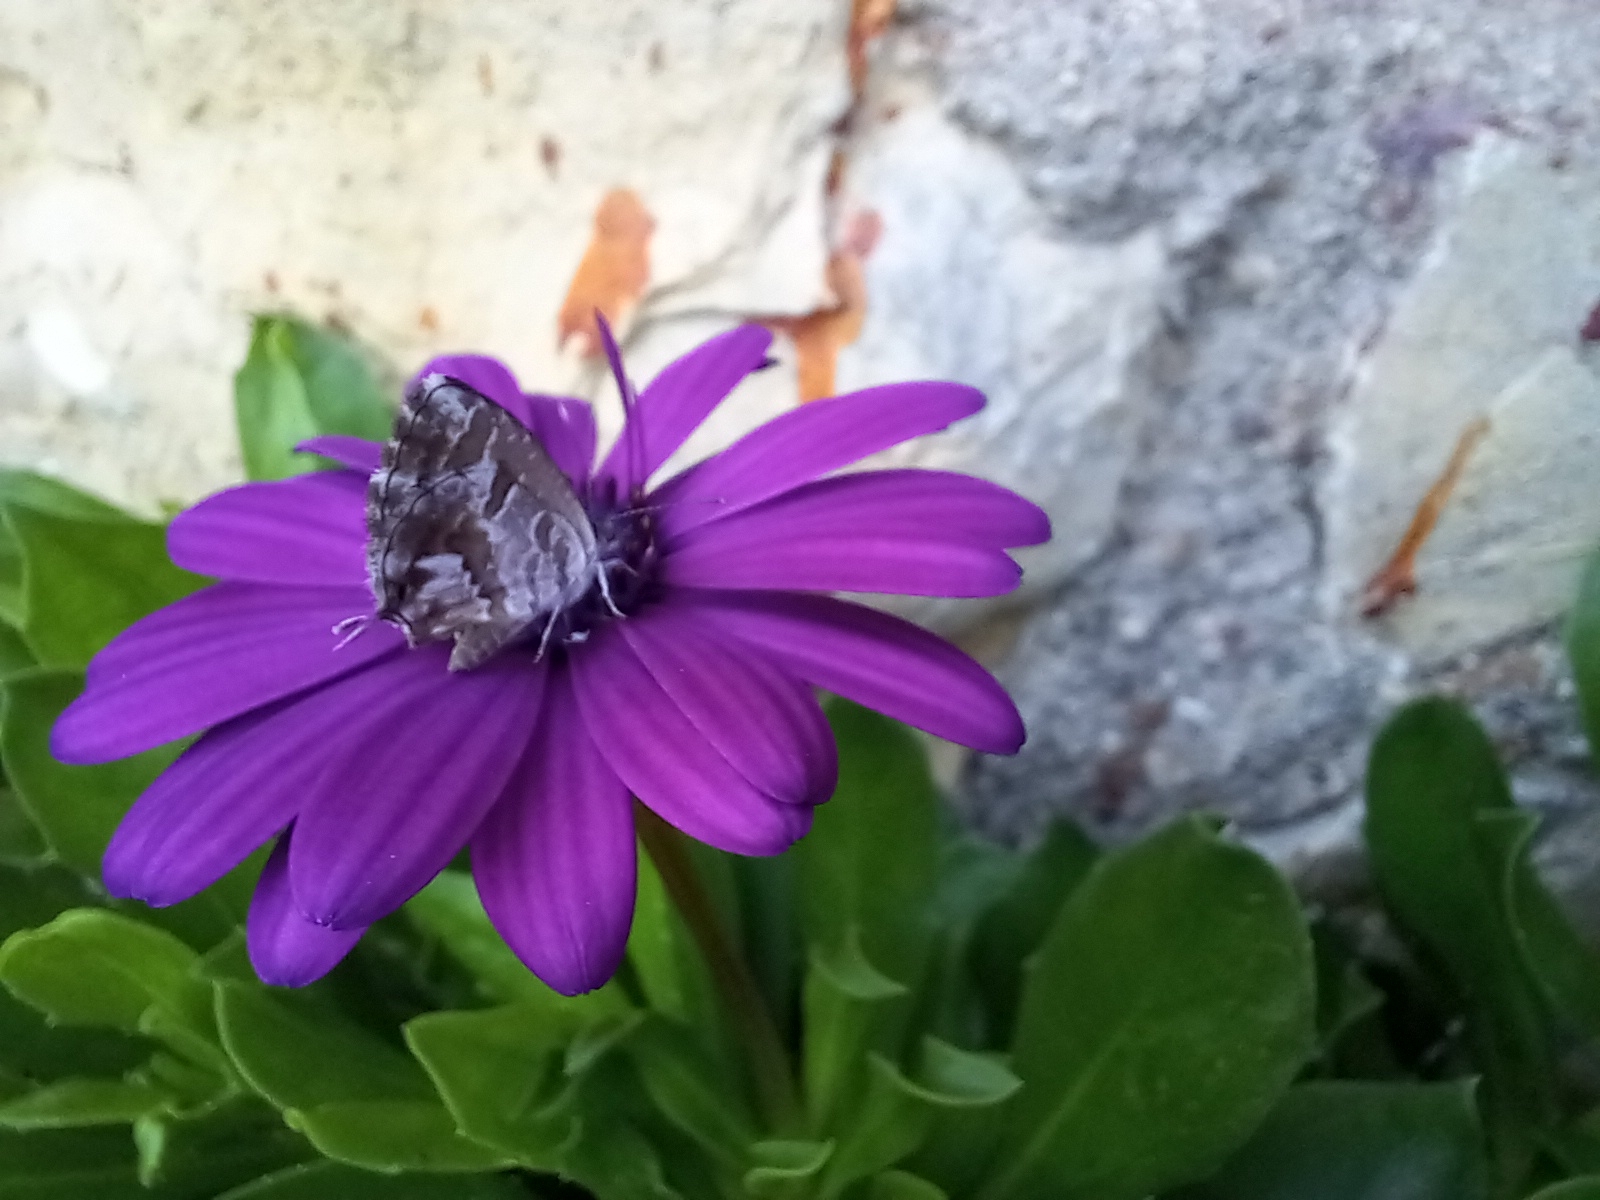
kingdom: Animalia
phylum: Arthropoda
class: Insecta
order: Lepidoptera
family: Lycaenidae
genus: Cacyreus
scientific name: Cacyreus marshalli
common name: Geranium bronze
